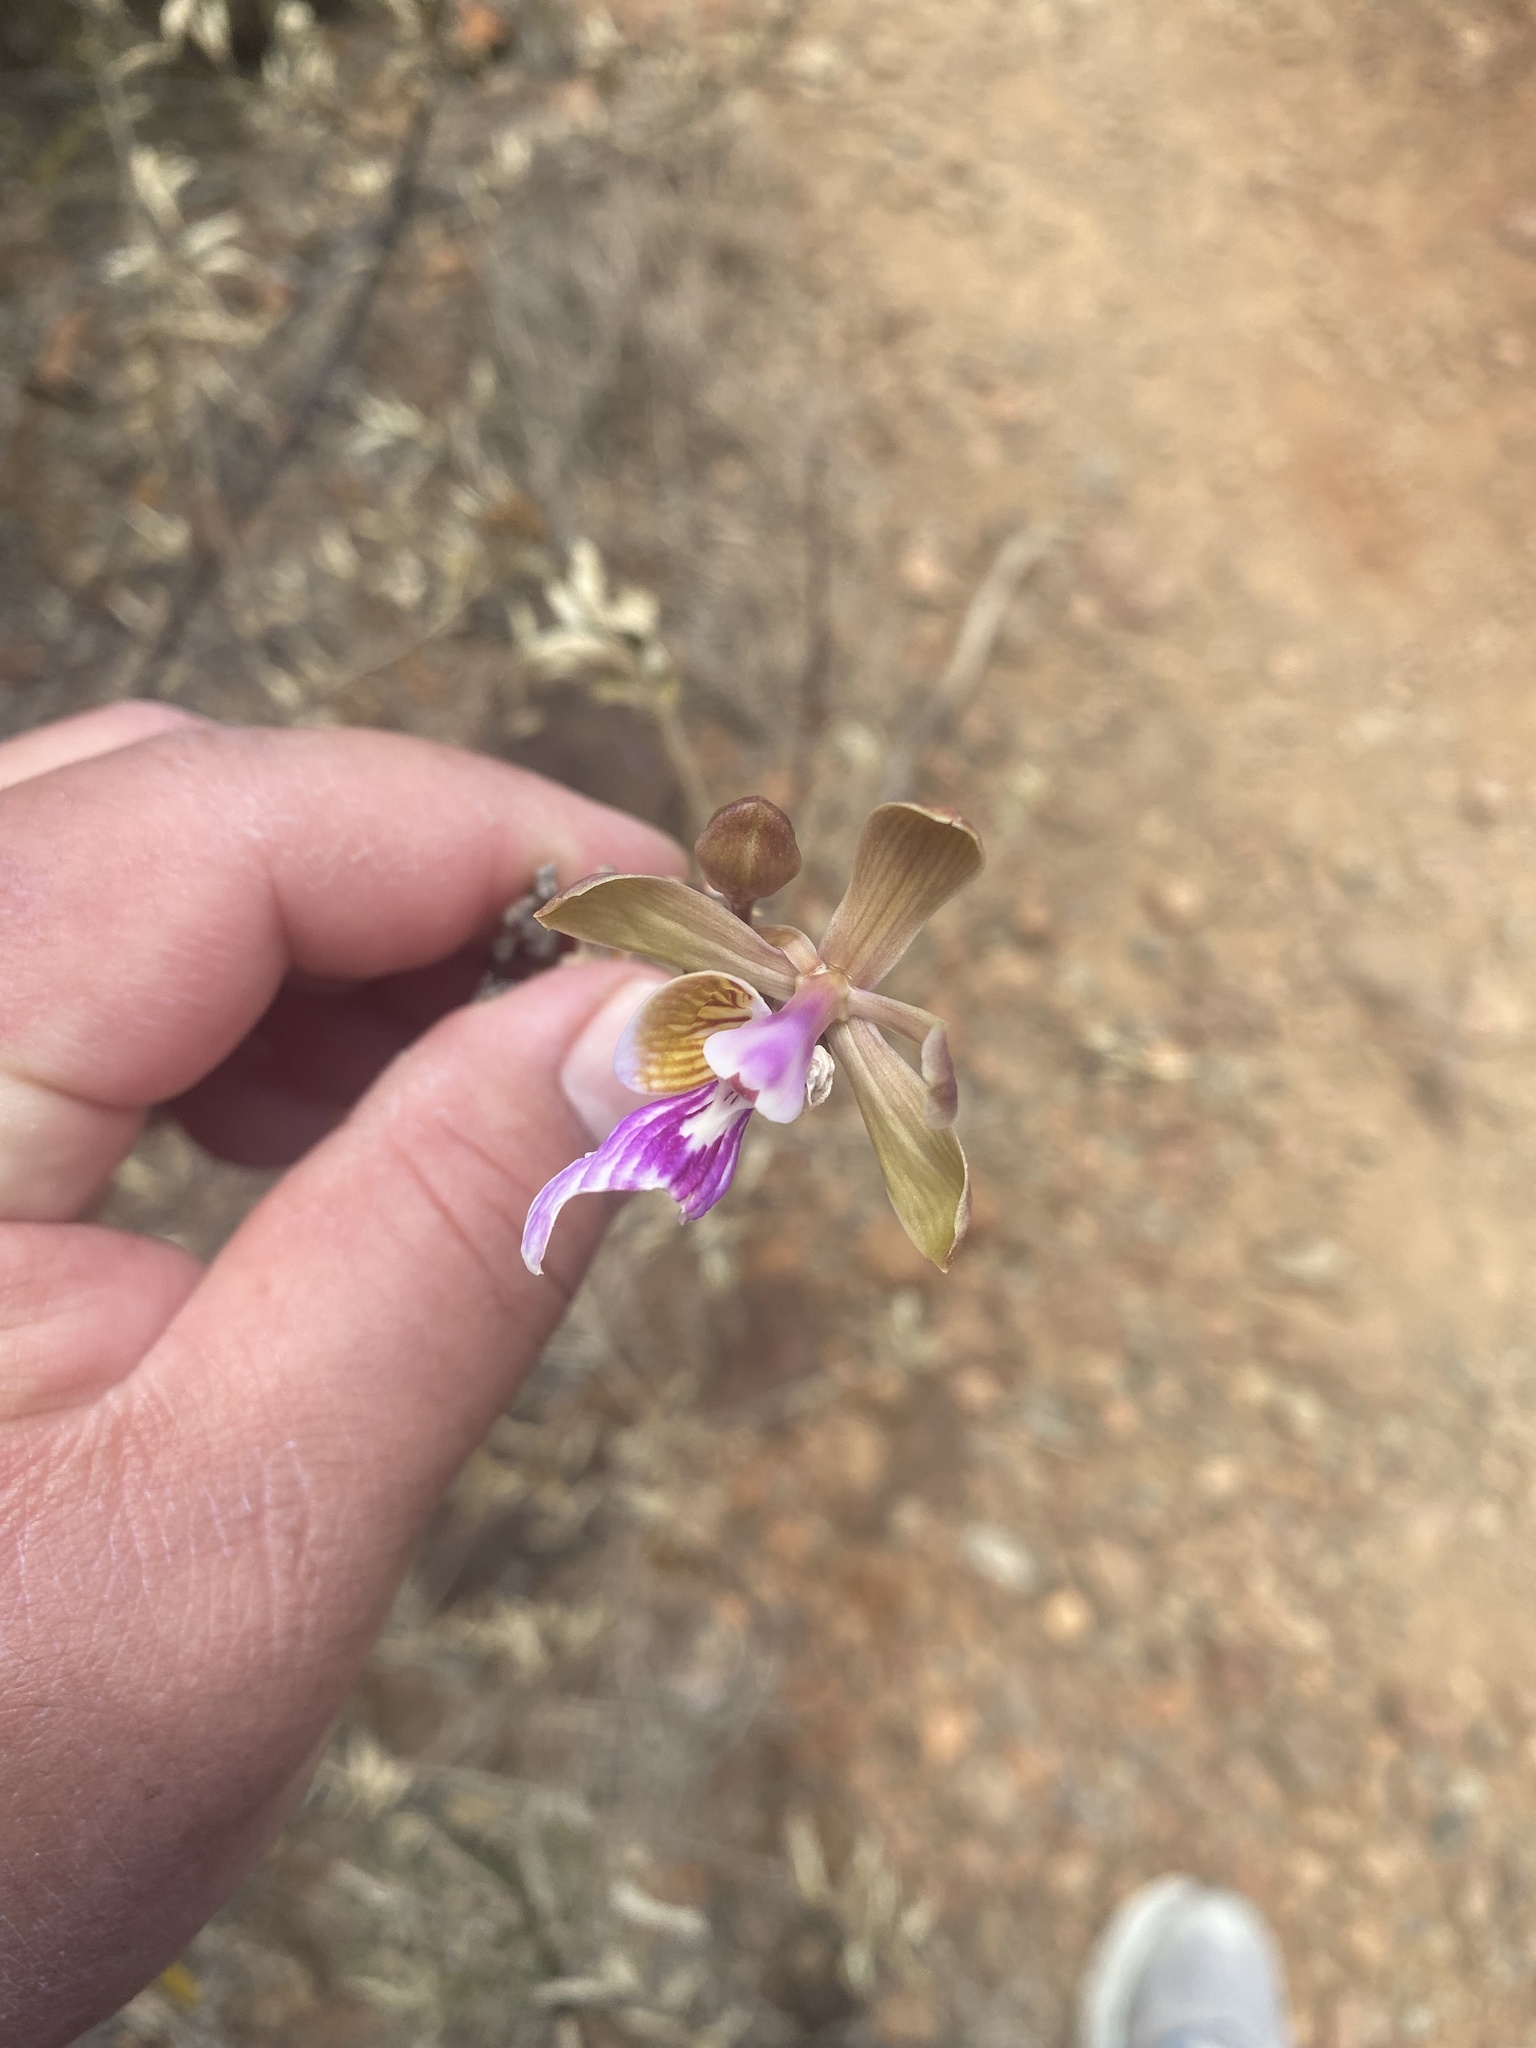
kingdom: Plantae
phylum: Tracheophyta
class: Liliopsida
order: Asparagales
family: Orchidaceae
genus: Psychilis
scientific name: Psychilis macconnelliae
